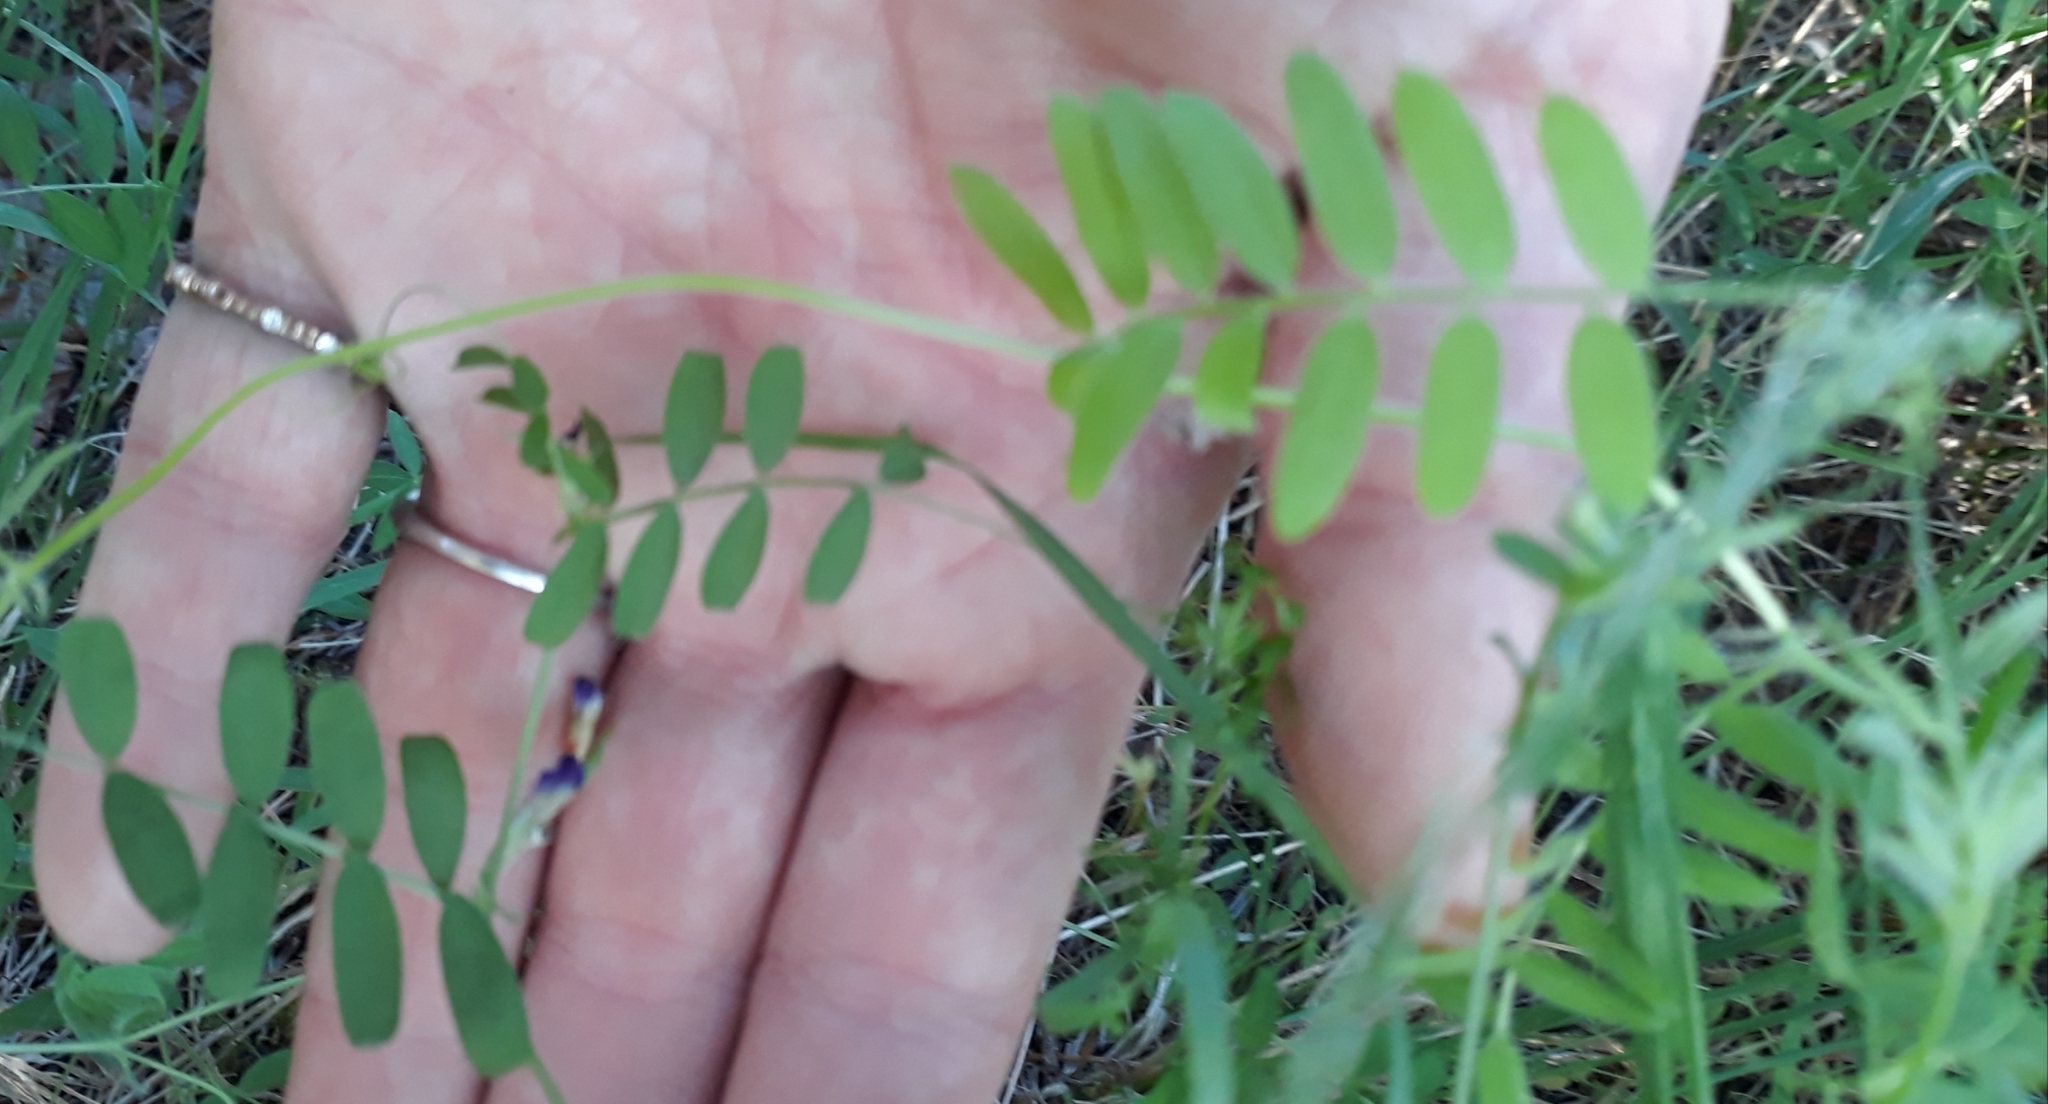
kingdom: Plantae
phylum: Tracheophyta
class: Magnoliopsida
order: Fabales
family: Fabaceae
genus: Vicia
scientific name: Vicia americana
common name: American vetch
